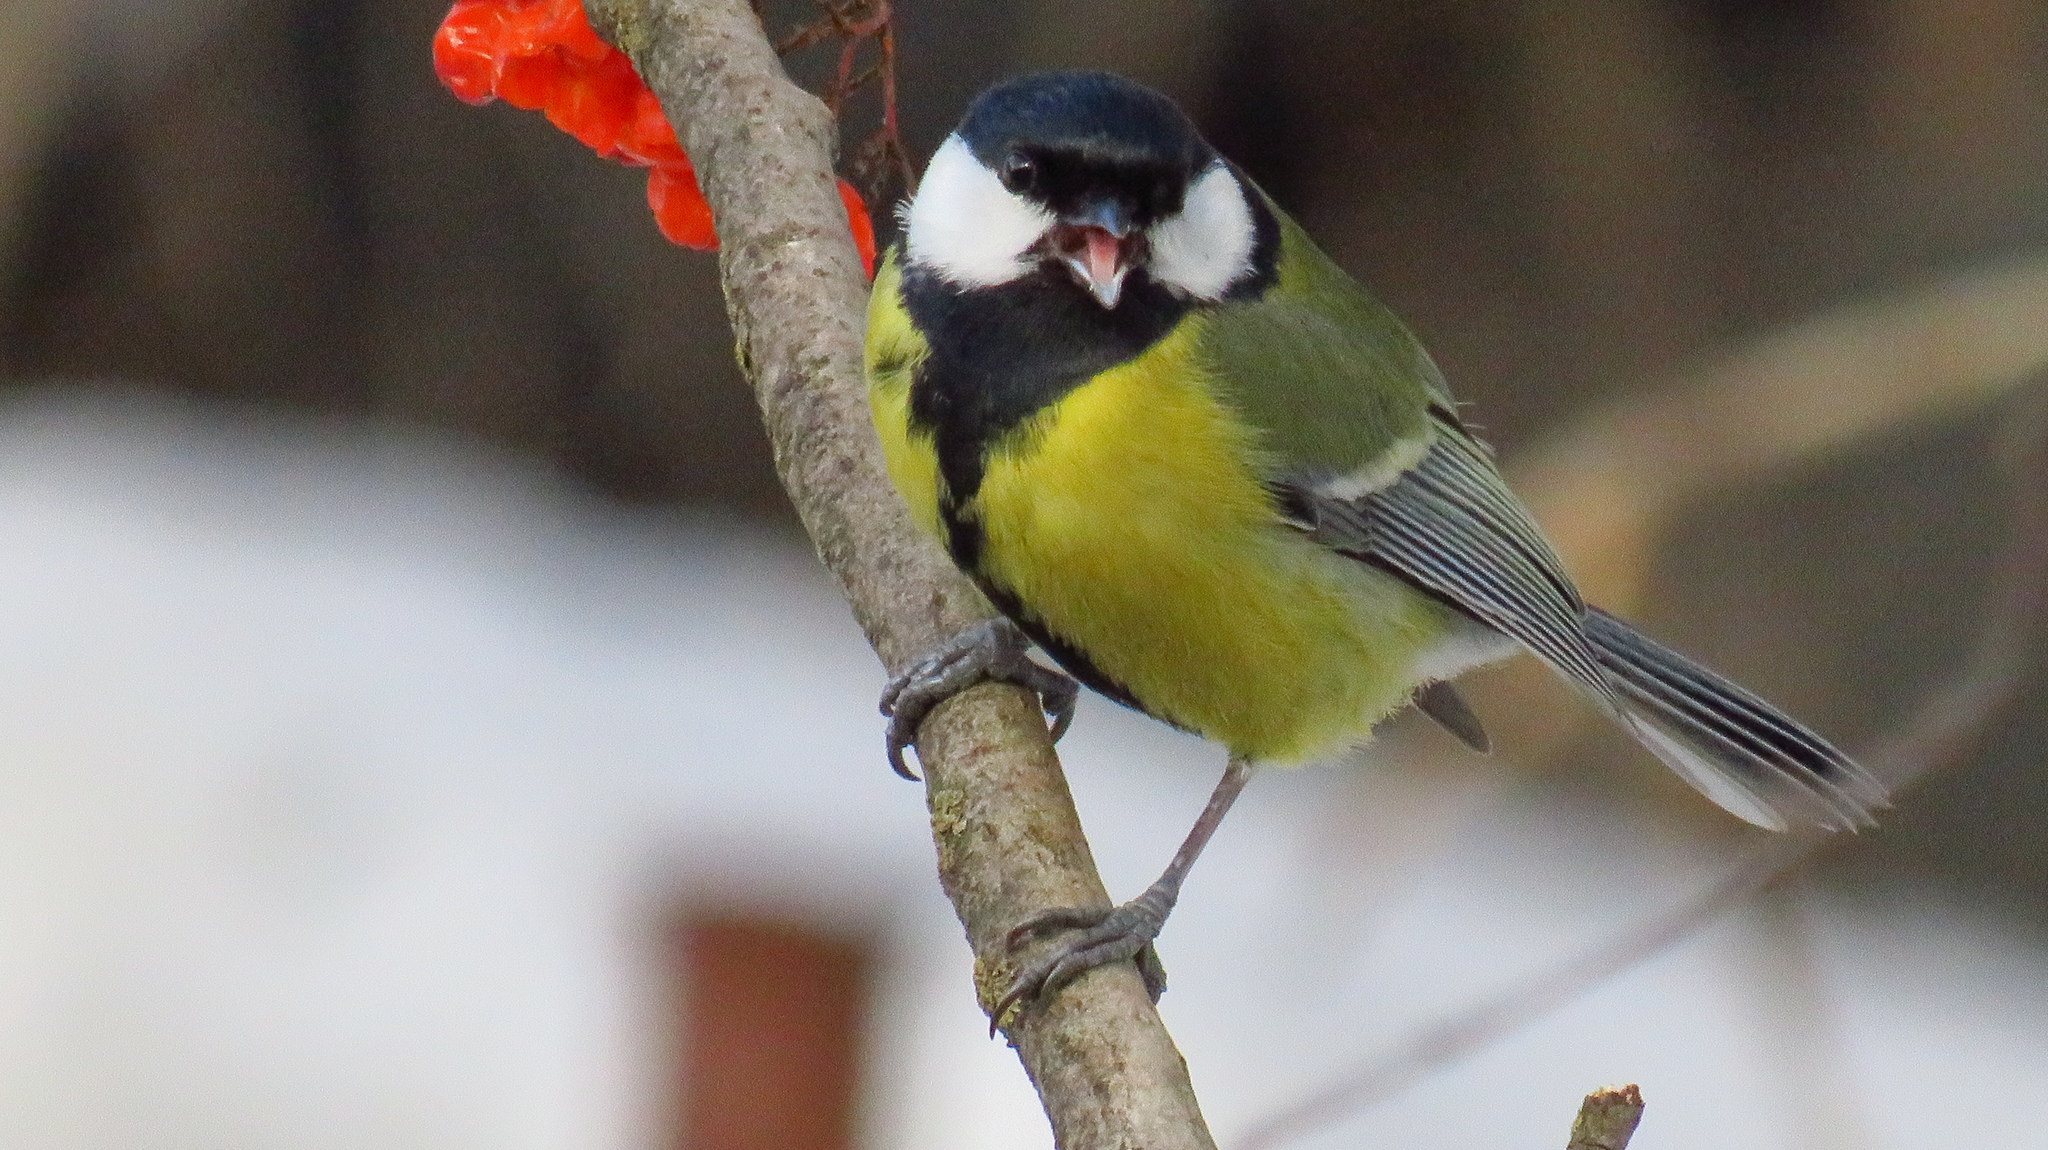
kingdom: Animalia
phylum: Chordata
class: Aves
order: Passeriformes
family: Paridae
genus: Parus
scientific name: Parus major
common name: Great tit
